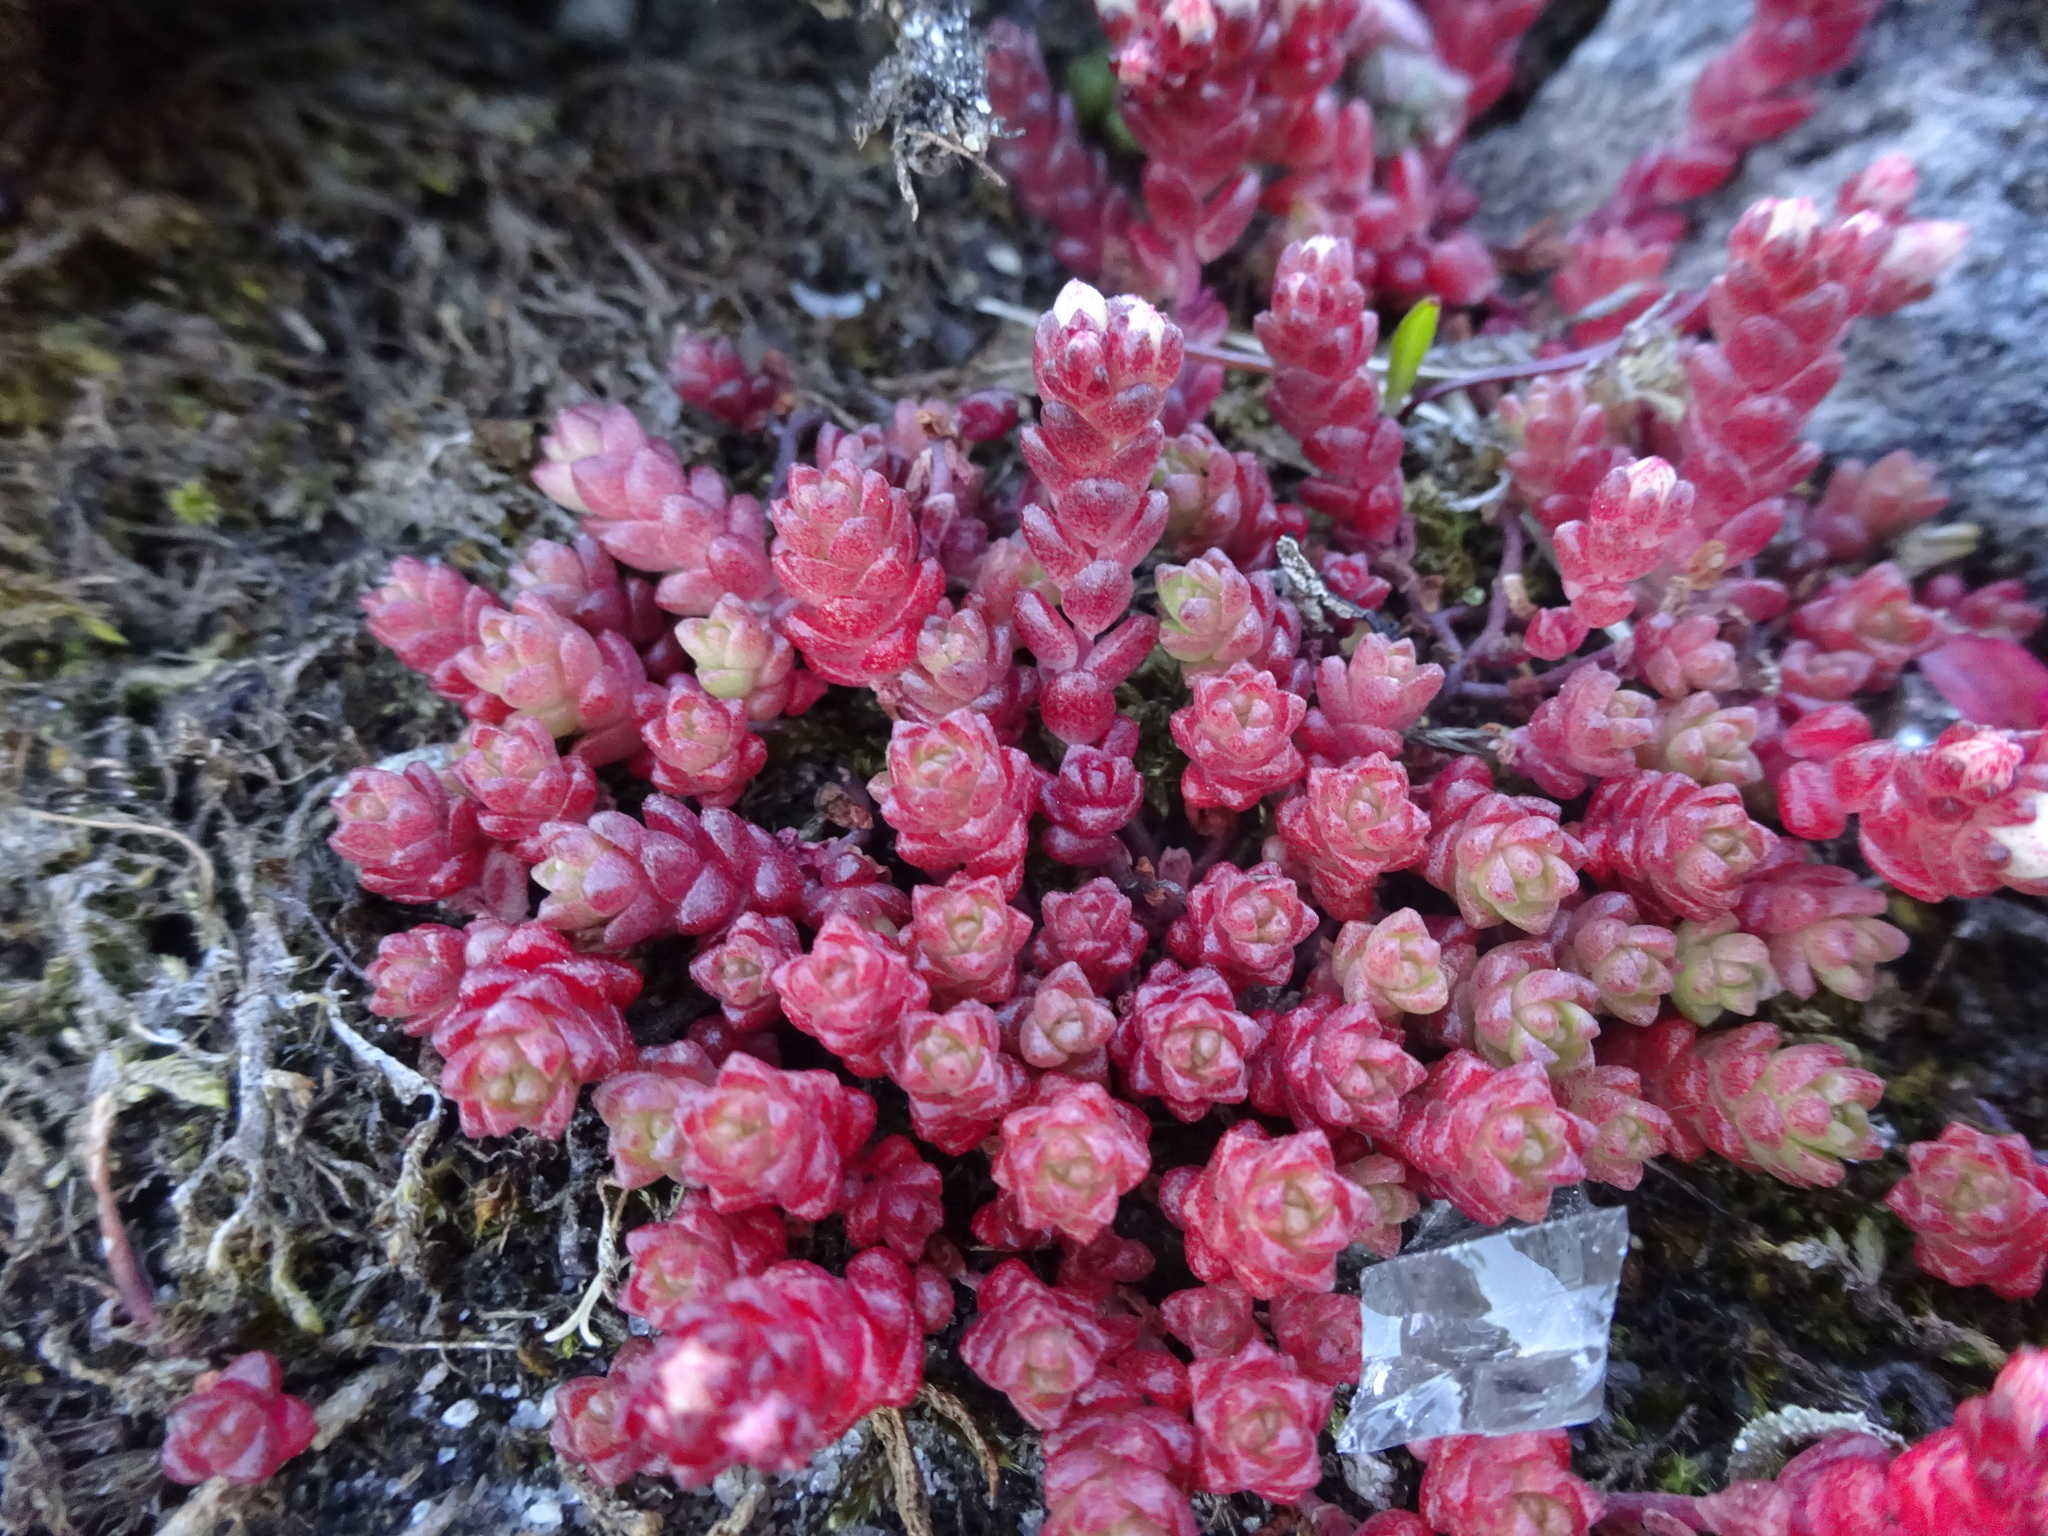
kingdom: Plantae
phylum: Tracheophyta
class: Magnoliopsida
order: Saxifragales
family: Crassulaceae
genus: Sedum
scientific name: Sedum anglicum
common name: English stonecrop
